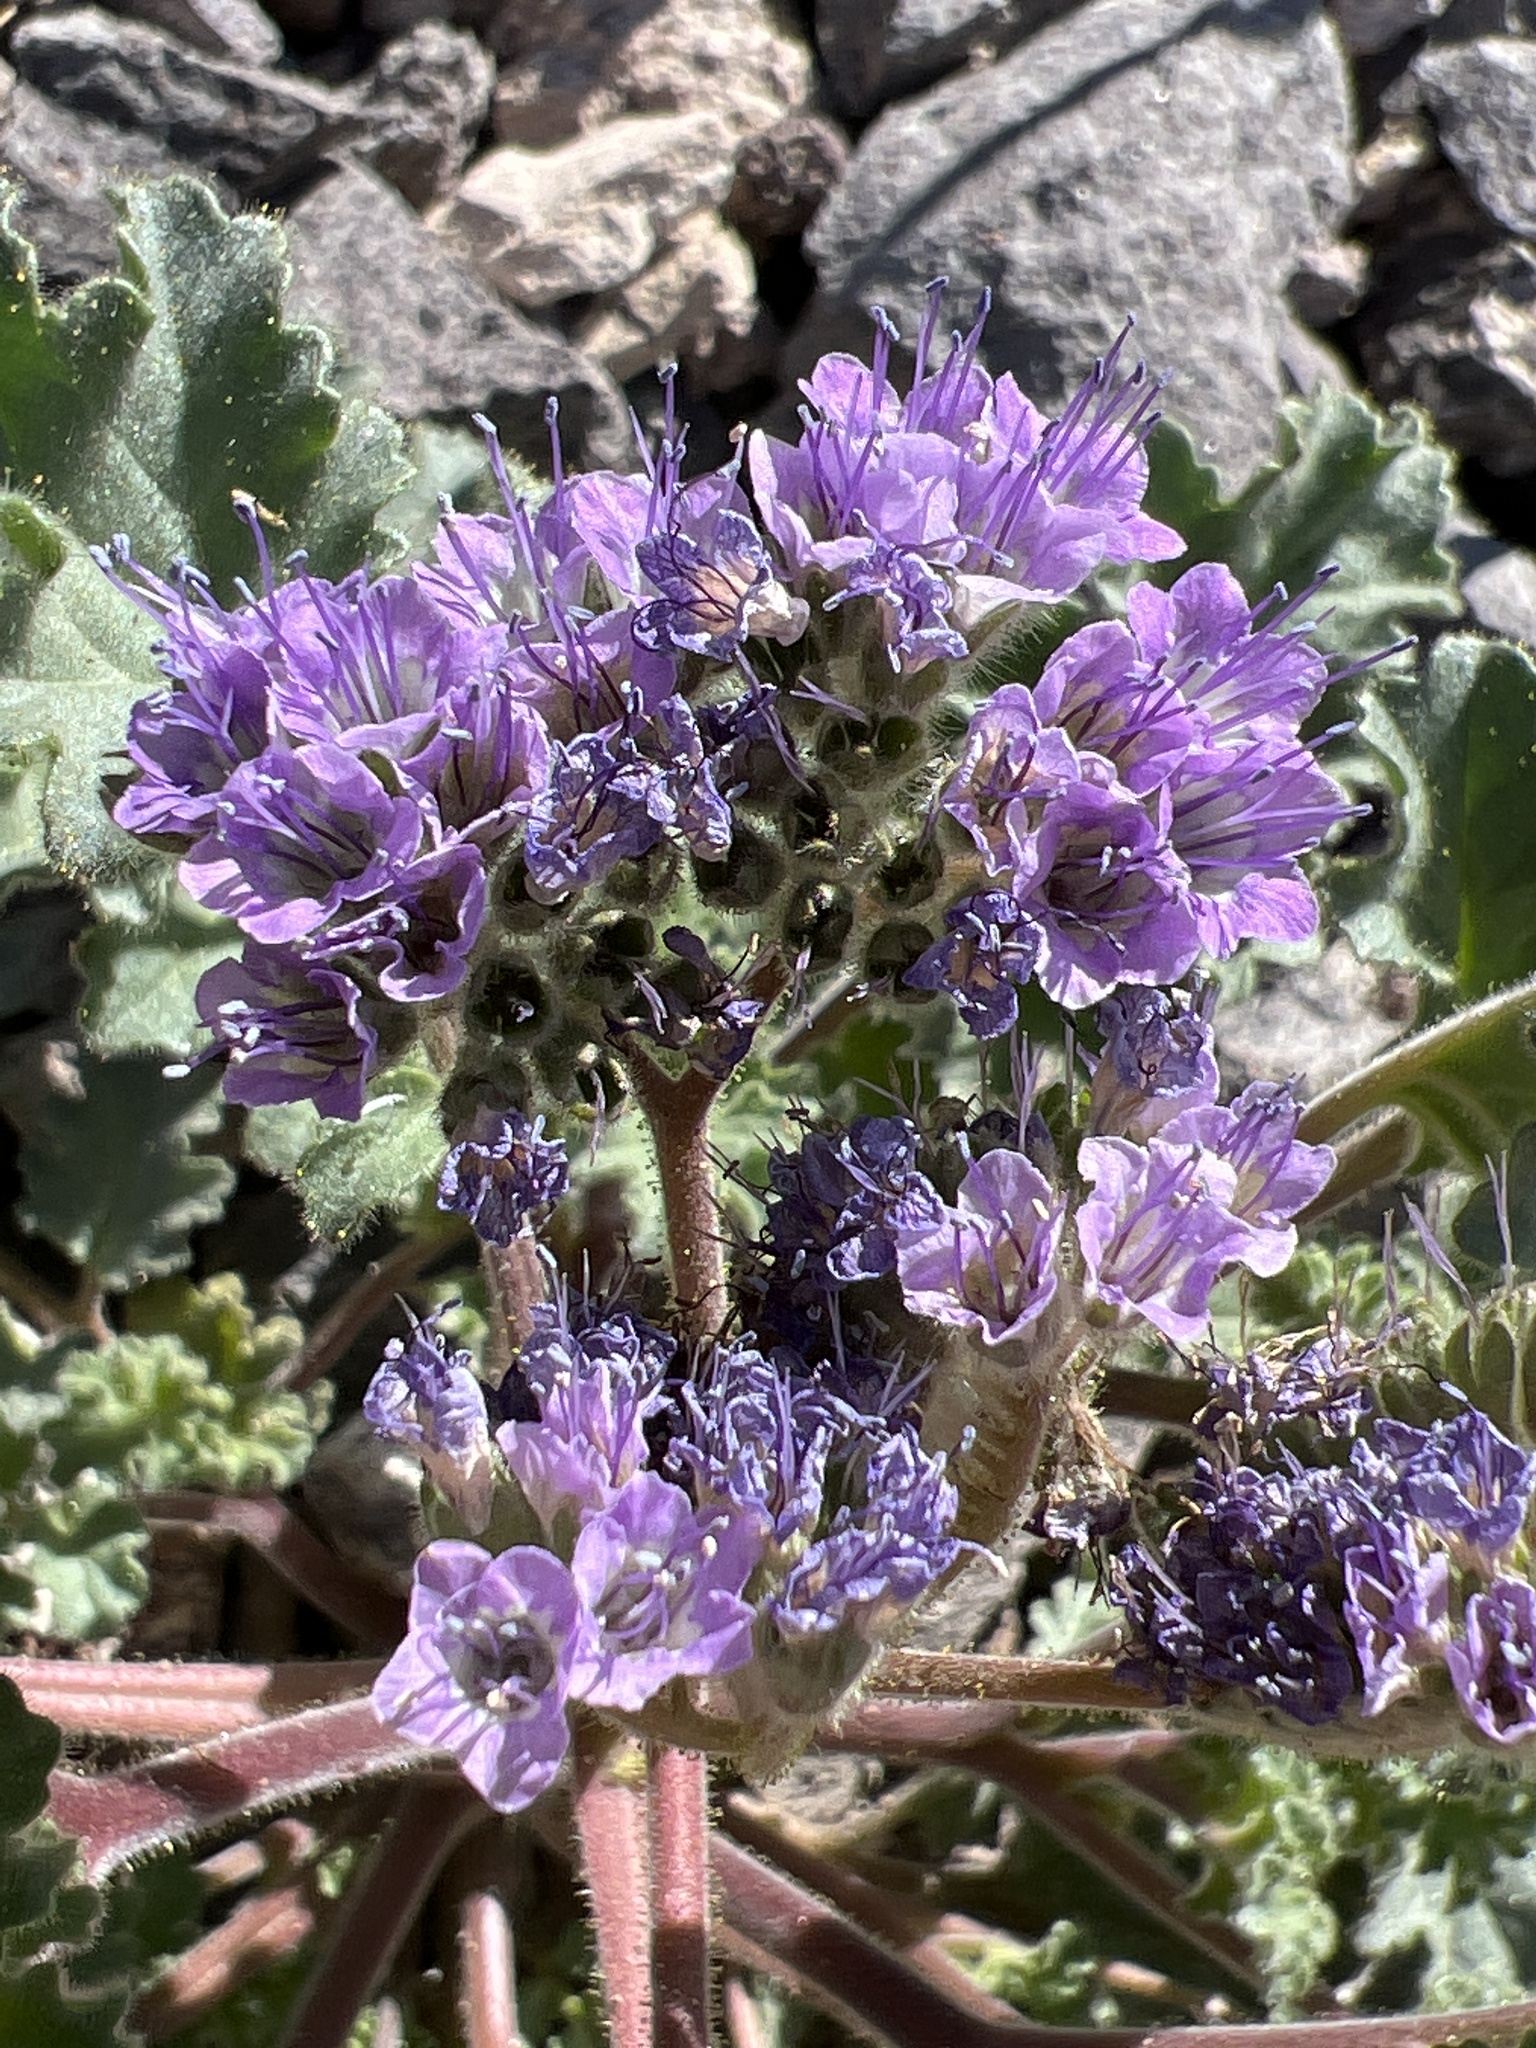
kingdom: Plantae
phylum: Tracheophyta
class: Magnoliopsida
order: Boraginales
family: Hydrophyllaceae
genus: Phacelia
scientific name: Phacelia pedicellata
